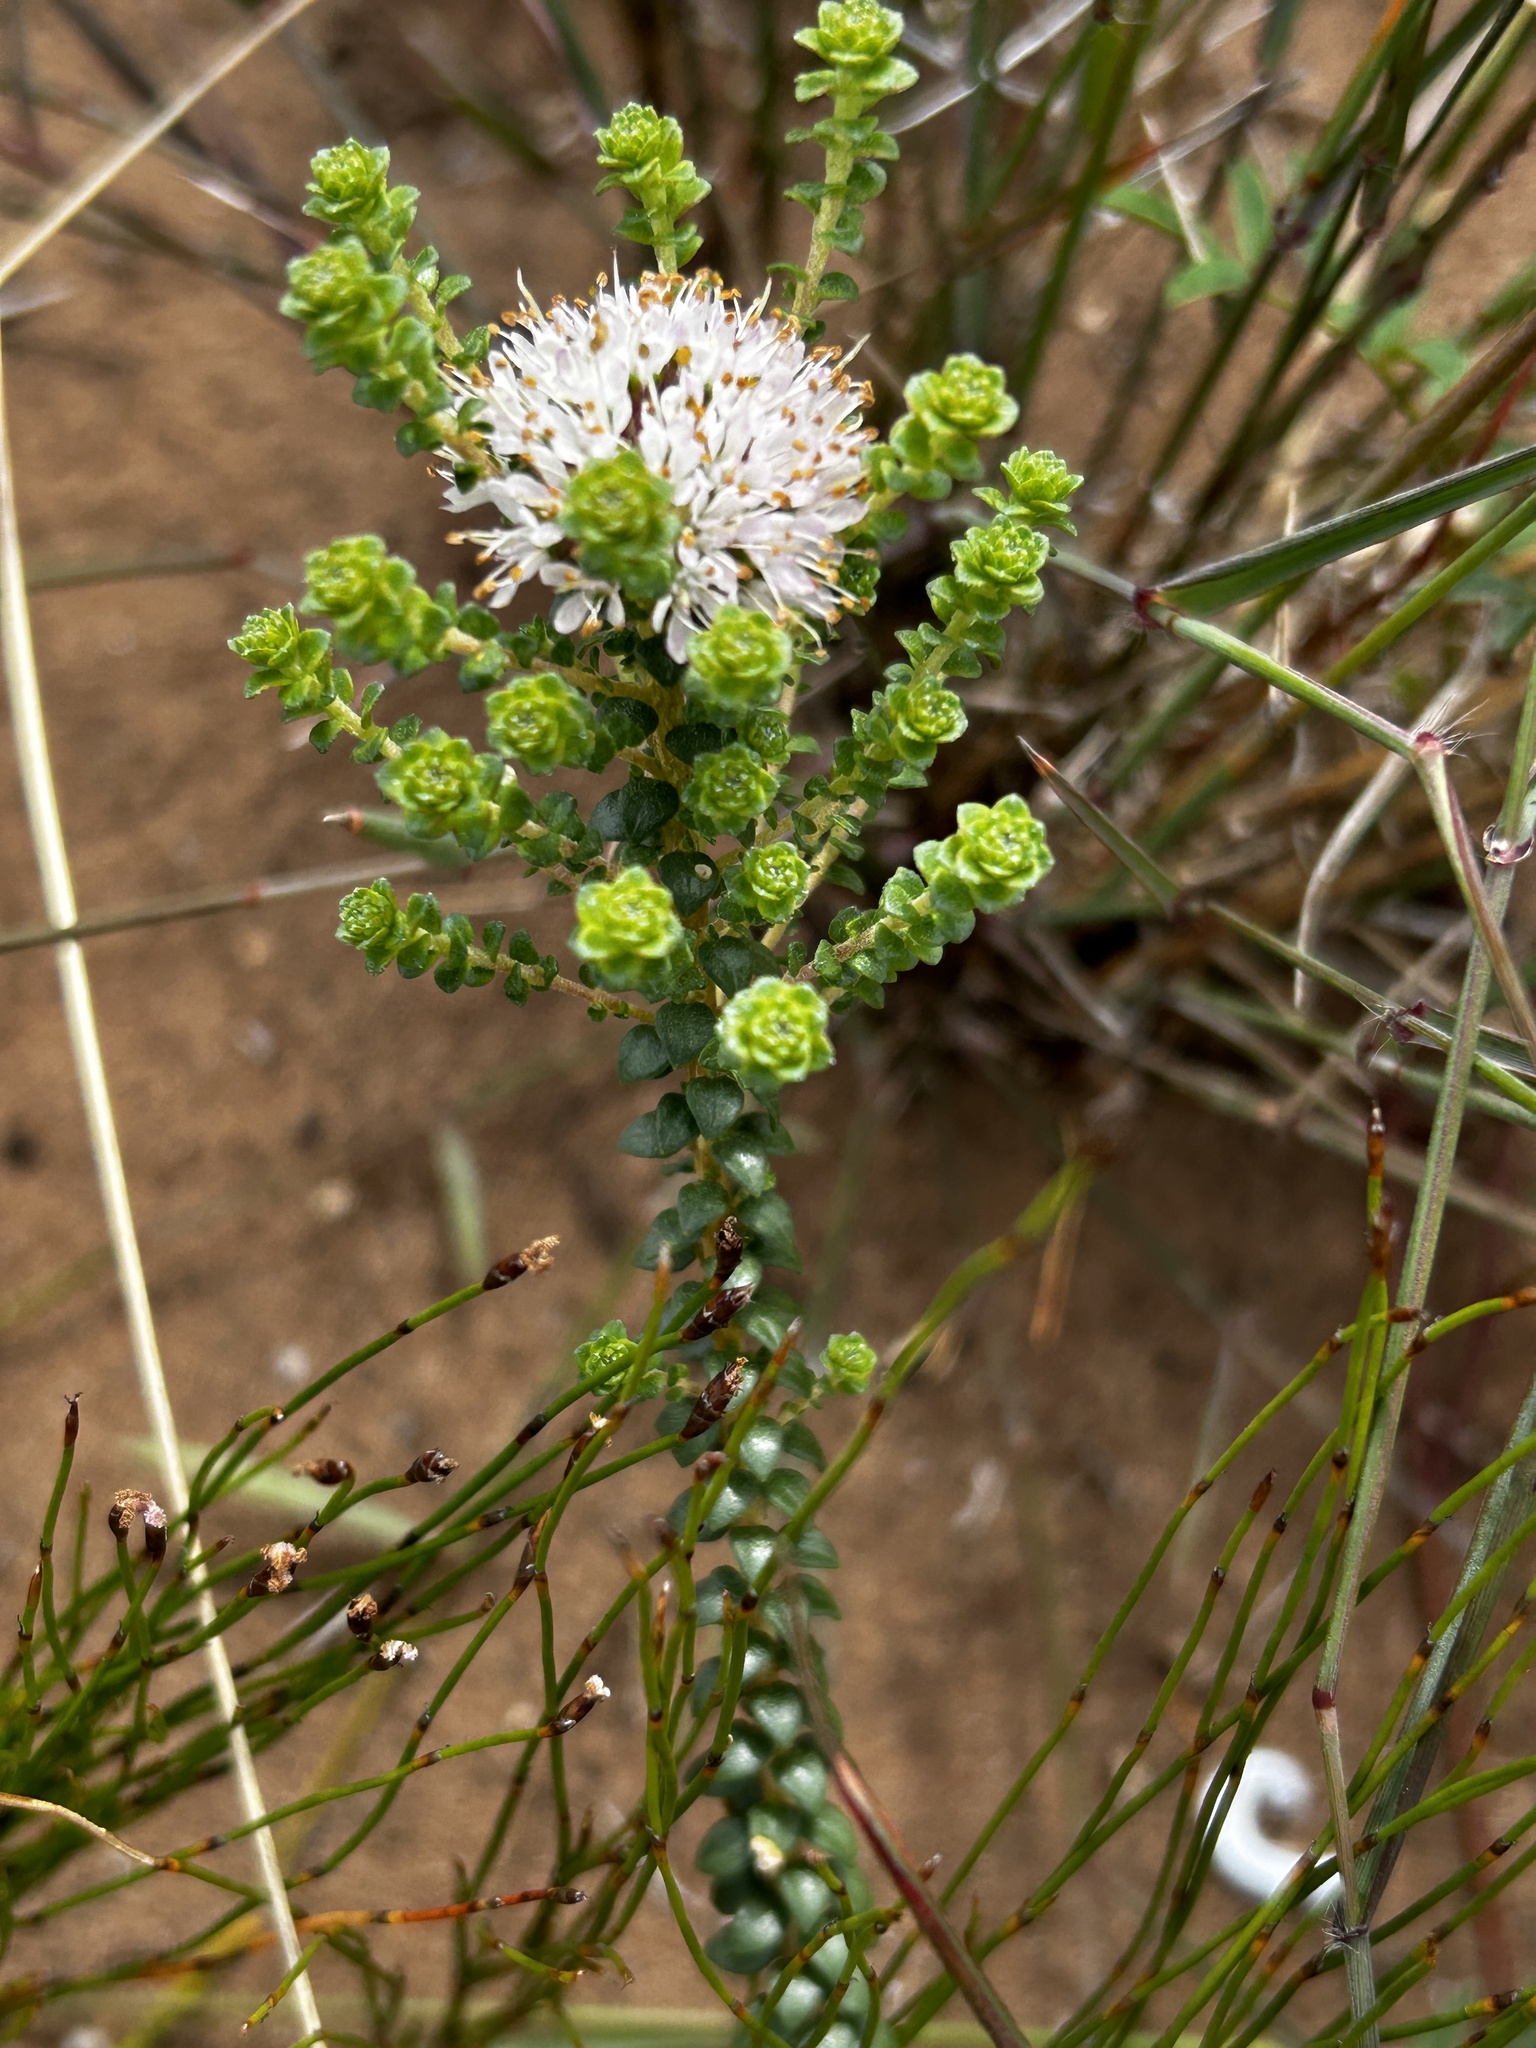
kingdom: Plantae
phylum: Tracheophyta
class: Magnoliopsida
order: Sapindales
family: Rutaceae
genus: Agathosma
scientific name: Agathosma muirii
